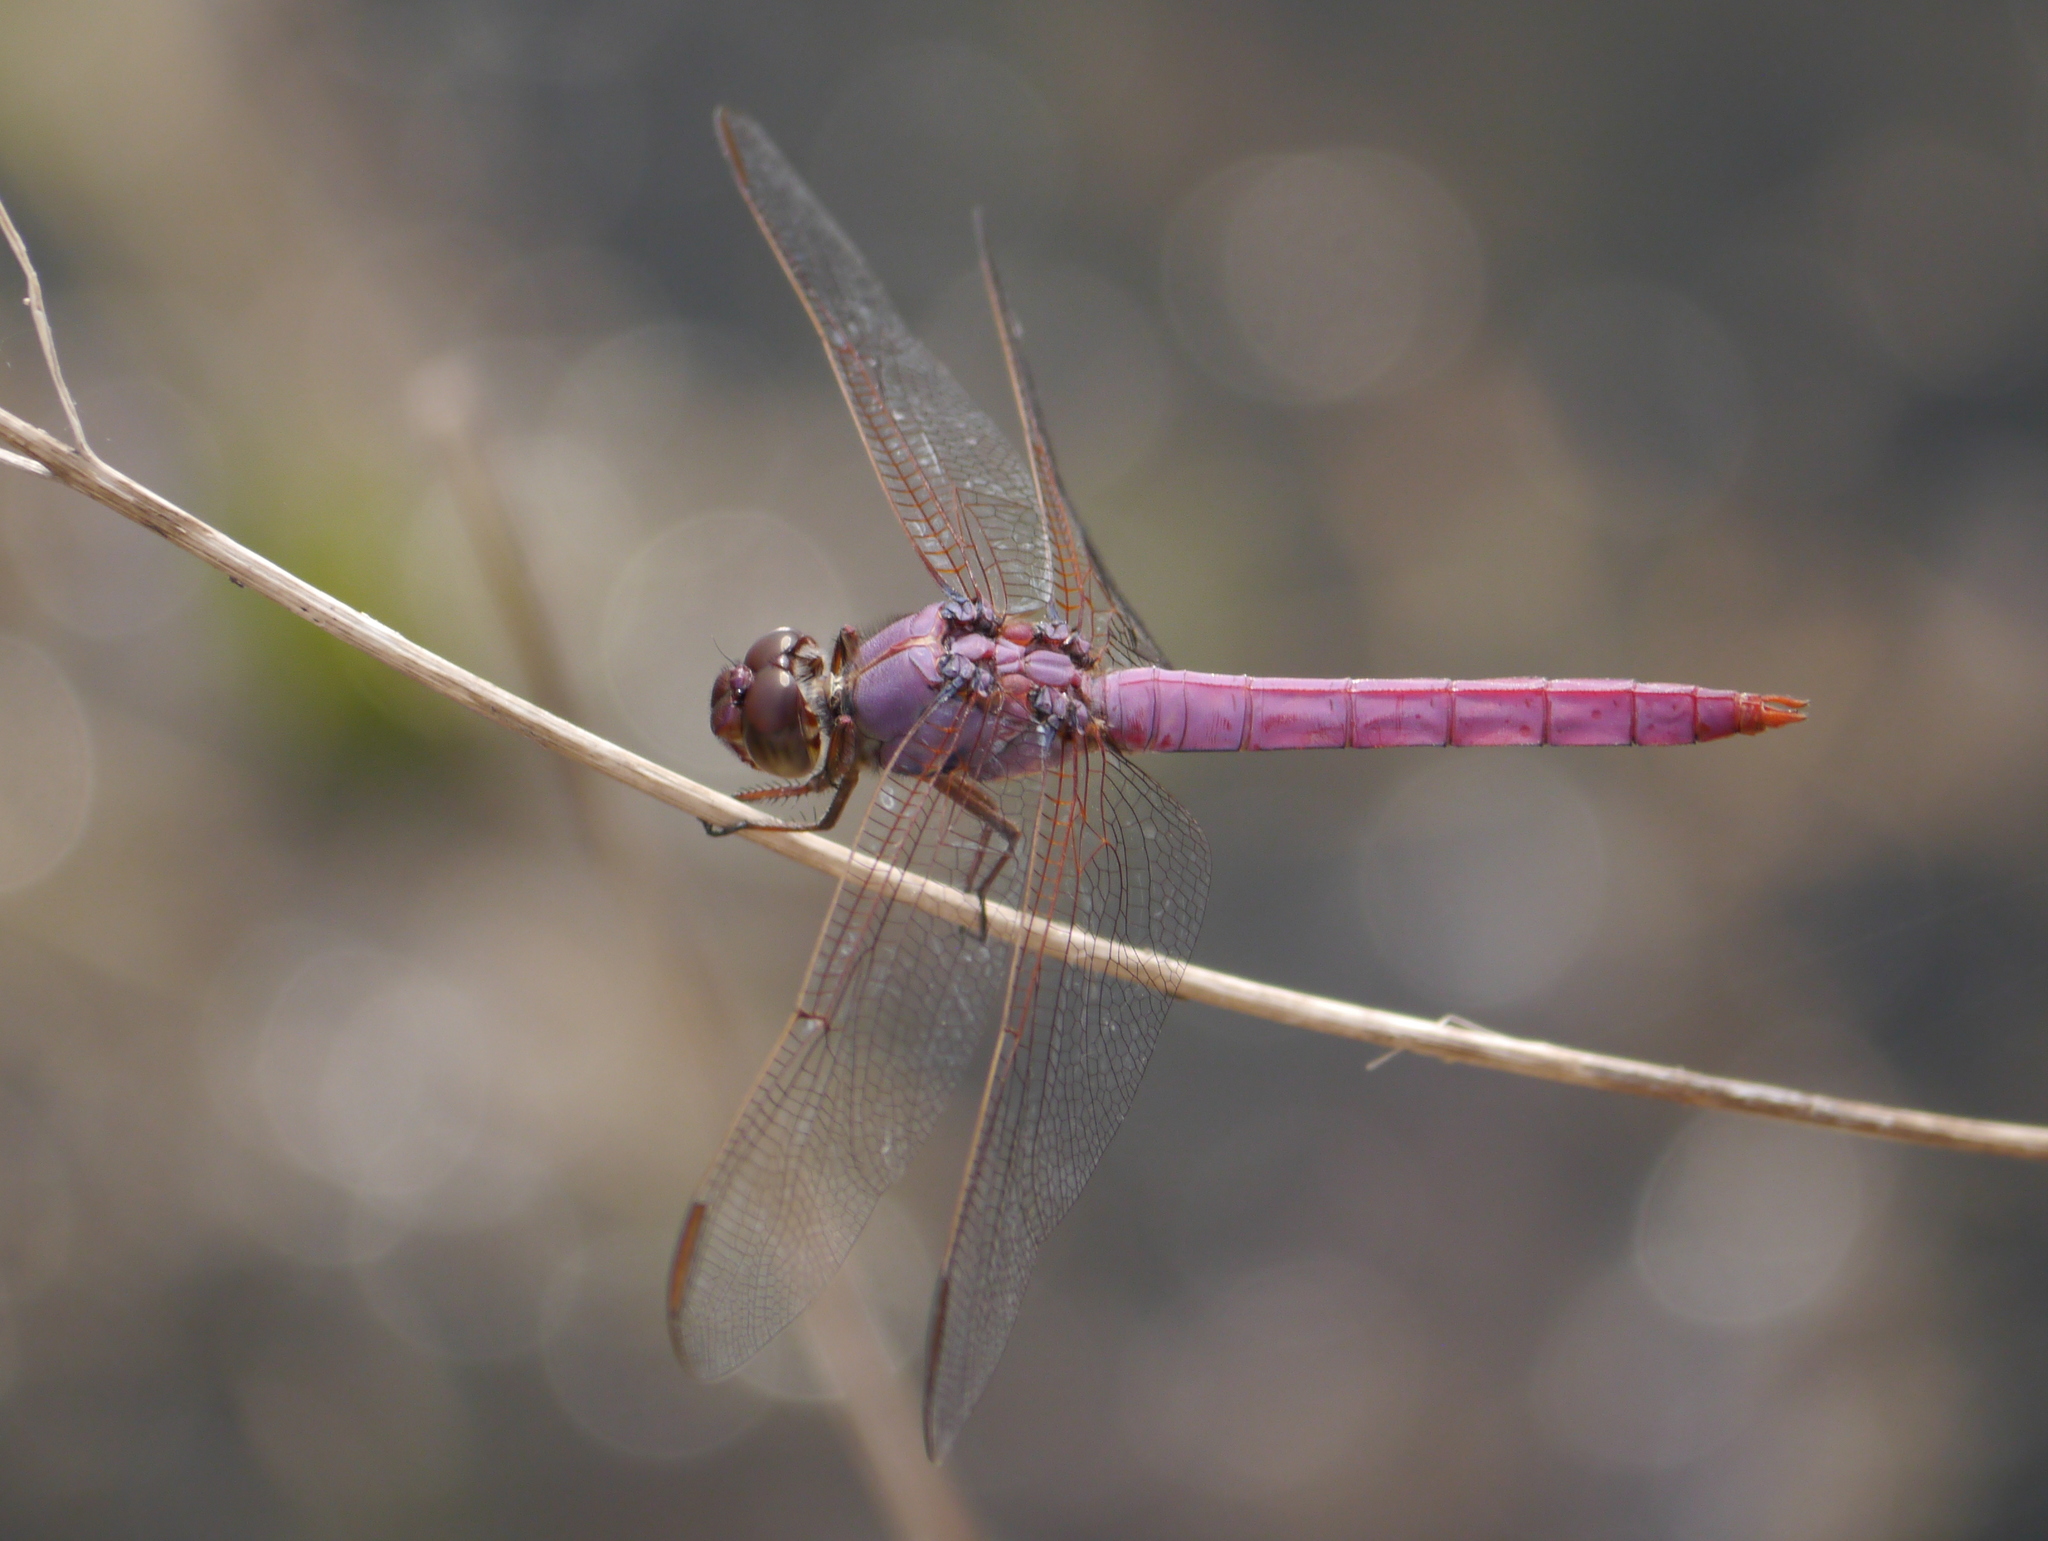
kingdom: Animalia
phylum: Arthropoda
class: Insecta
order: Odonata
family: Libellulidae
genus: Orthemis
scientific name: Orthemis ferruginea
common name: Roseate skimmer
